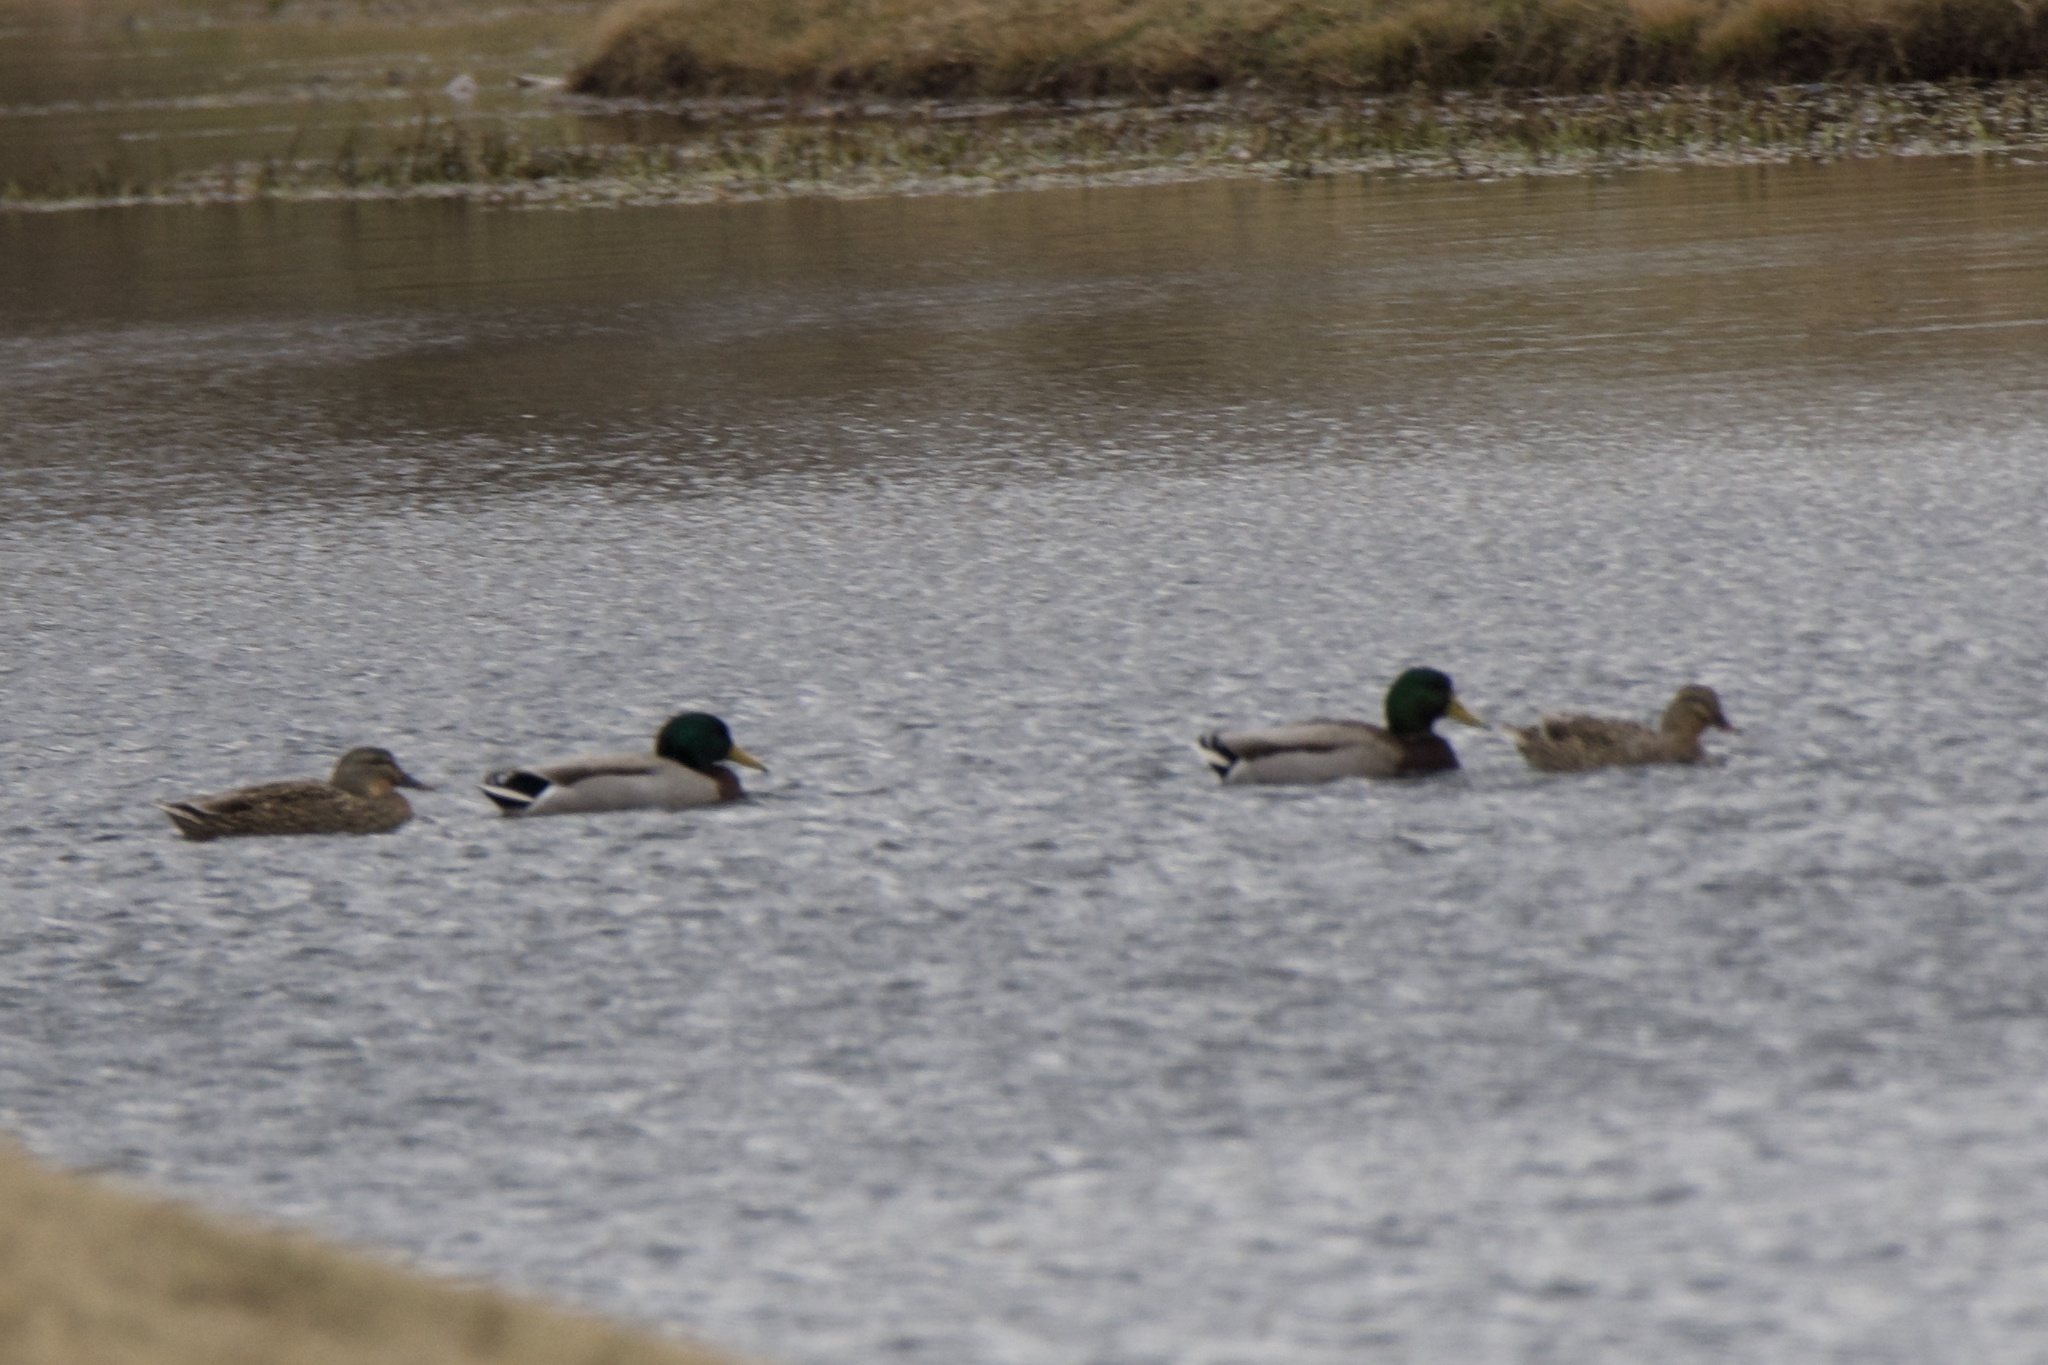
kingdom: Animalia
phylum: Chordata
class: Aves
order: Anseriformes
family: Anatidae
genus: Anas
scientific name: Anas platyrhynchos
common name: Mallard
